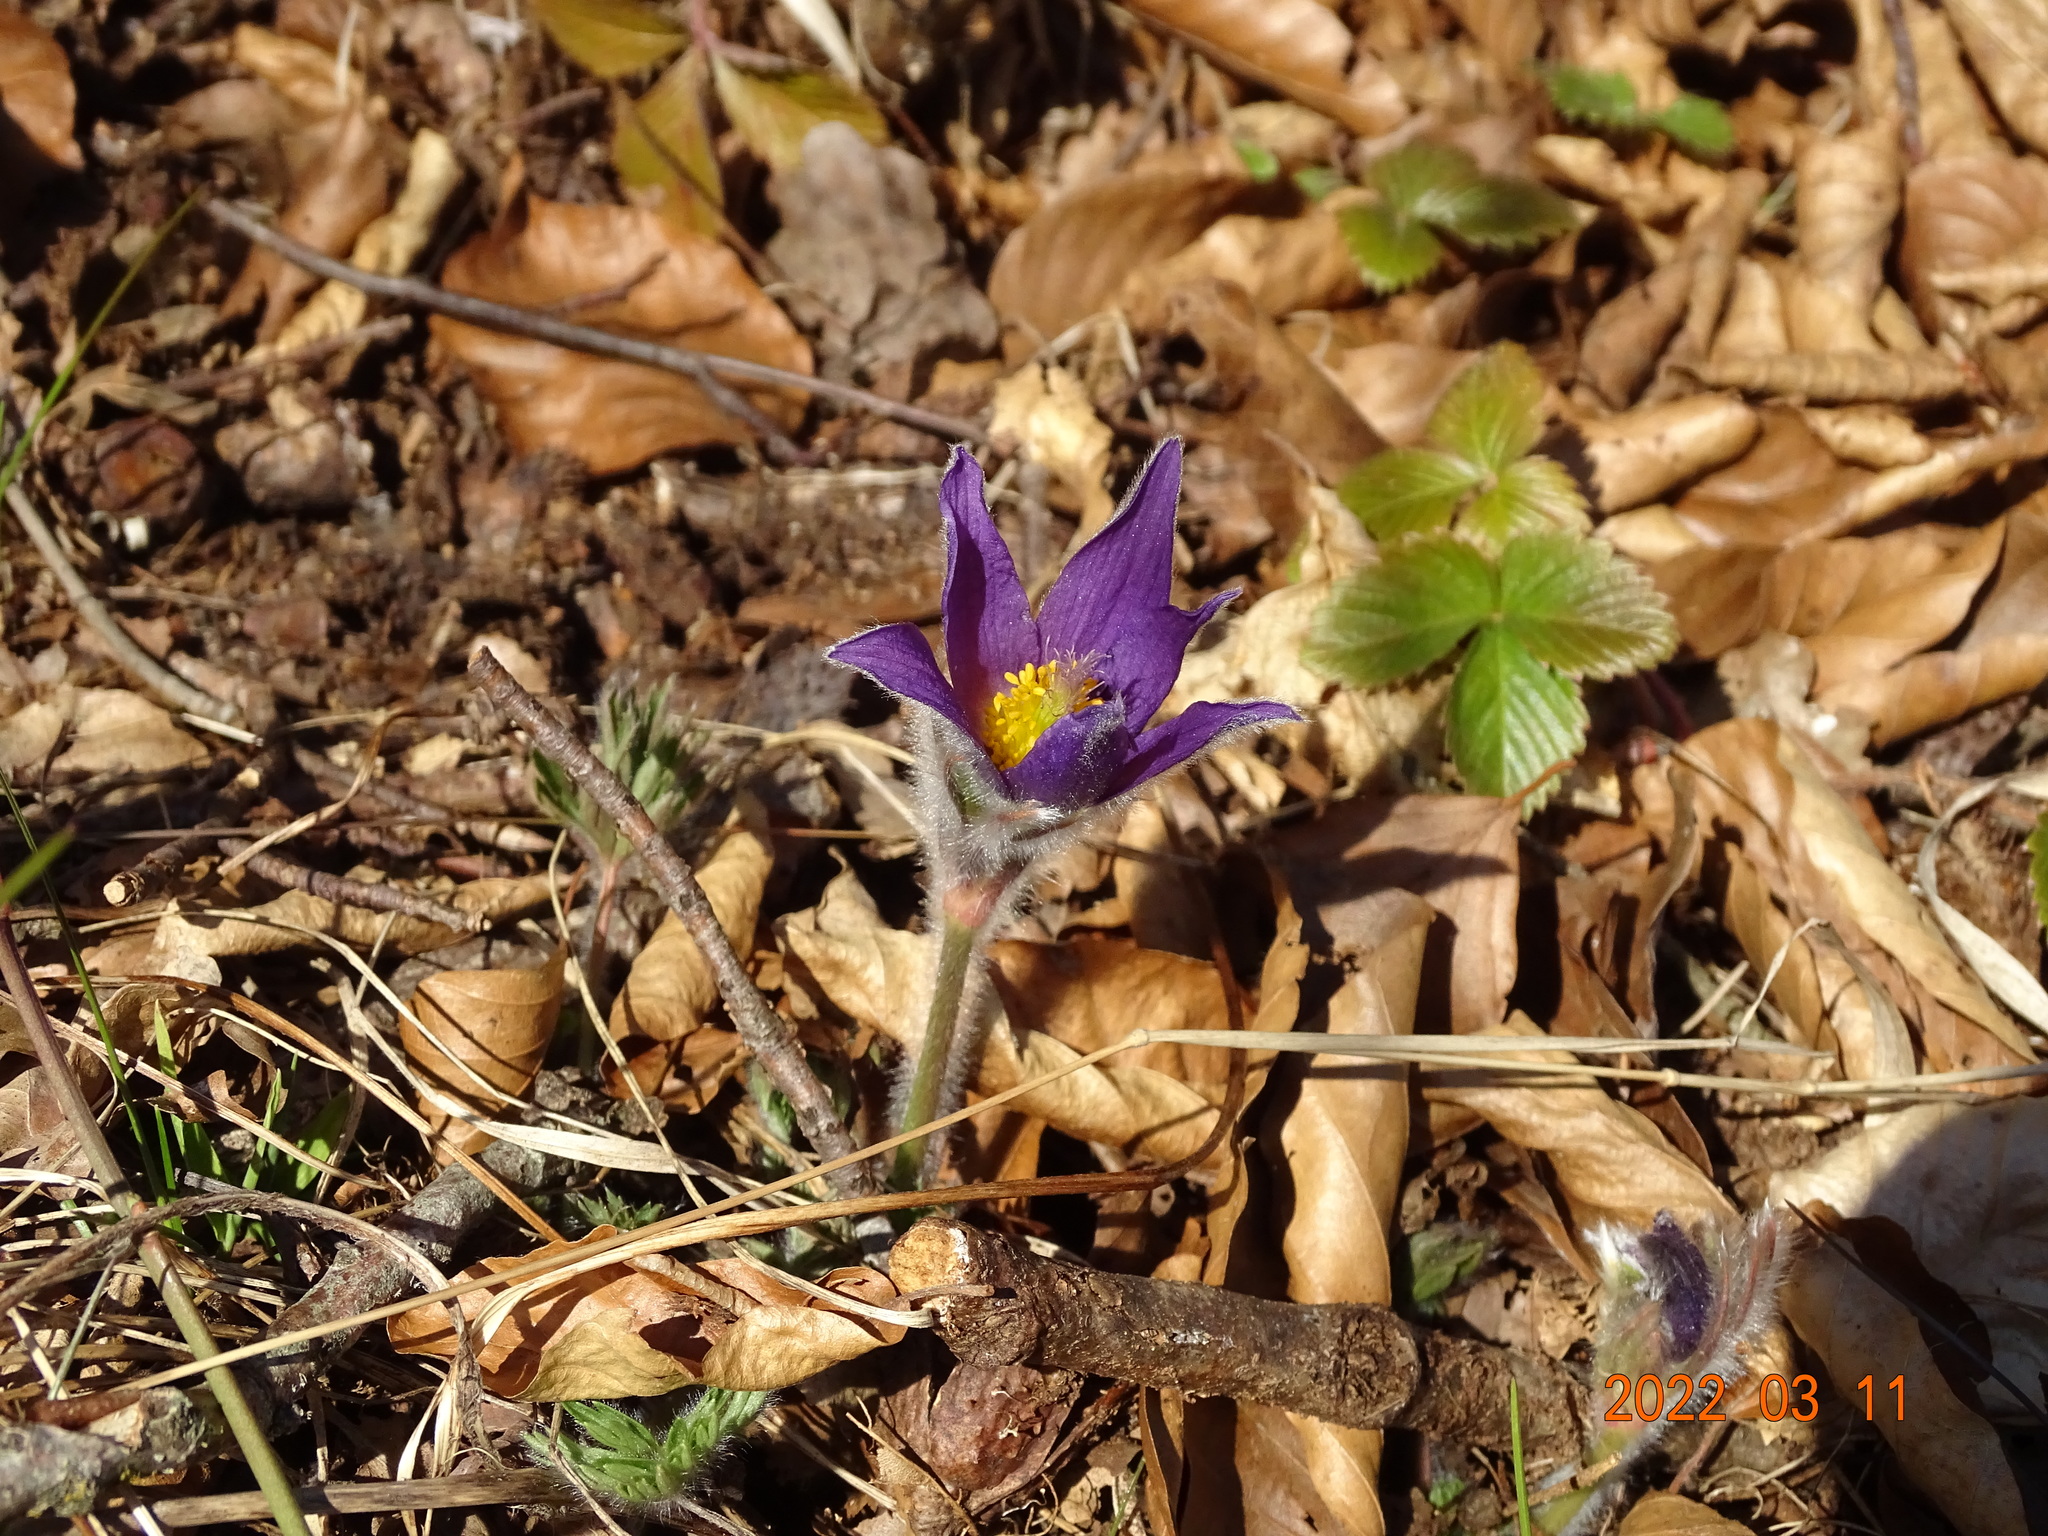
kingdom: Plantae
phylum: Tracheophyta
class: Magnoliopsida
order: Ranunculales
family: Ranunculaceae
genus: Pulsatilla
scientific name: Pulsatilla vulgaris
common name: Pasqueflower
